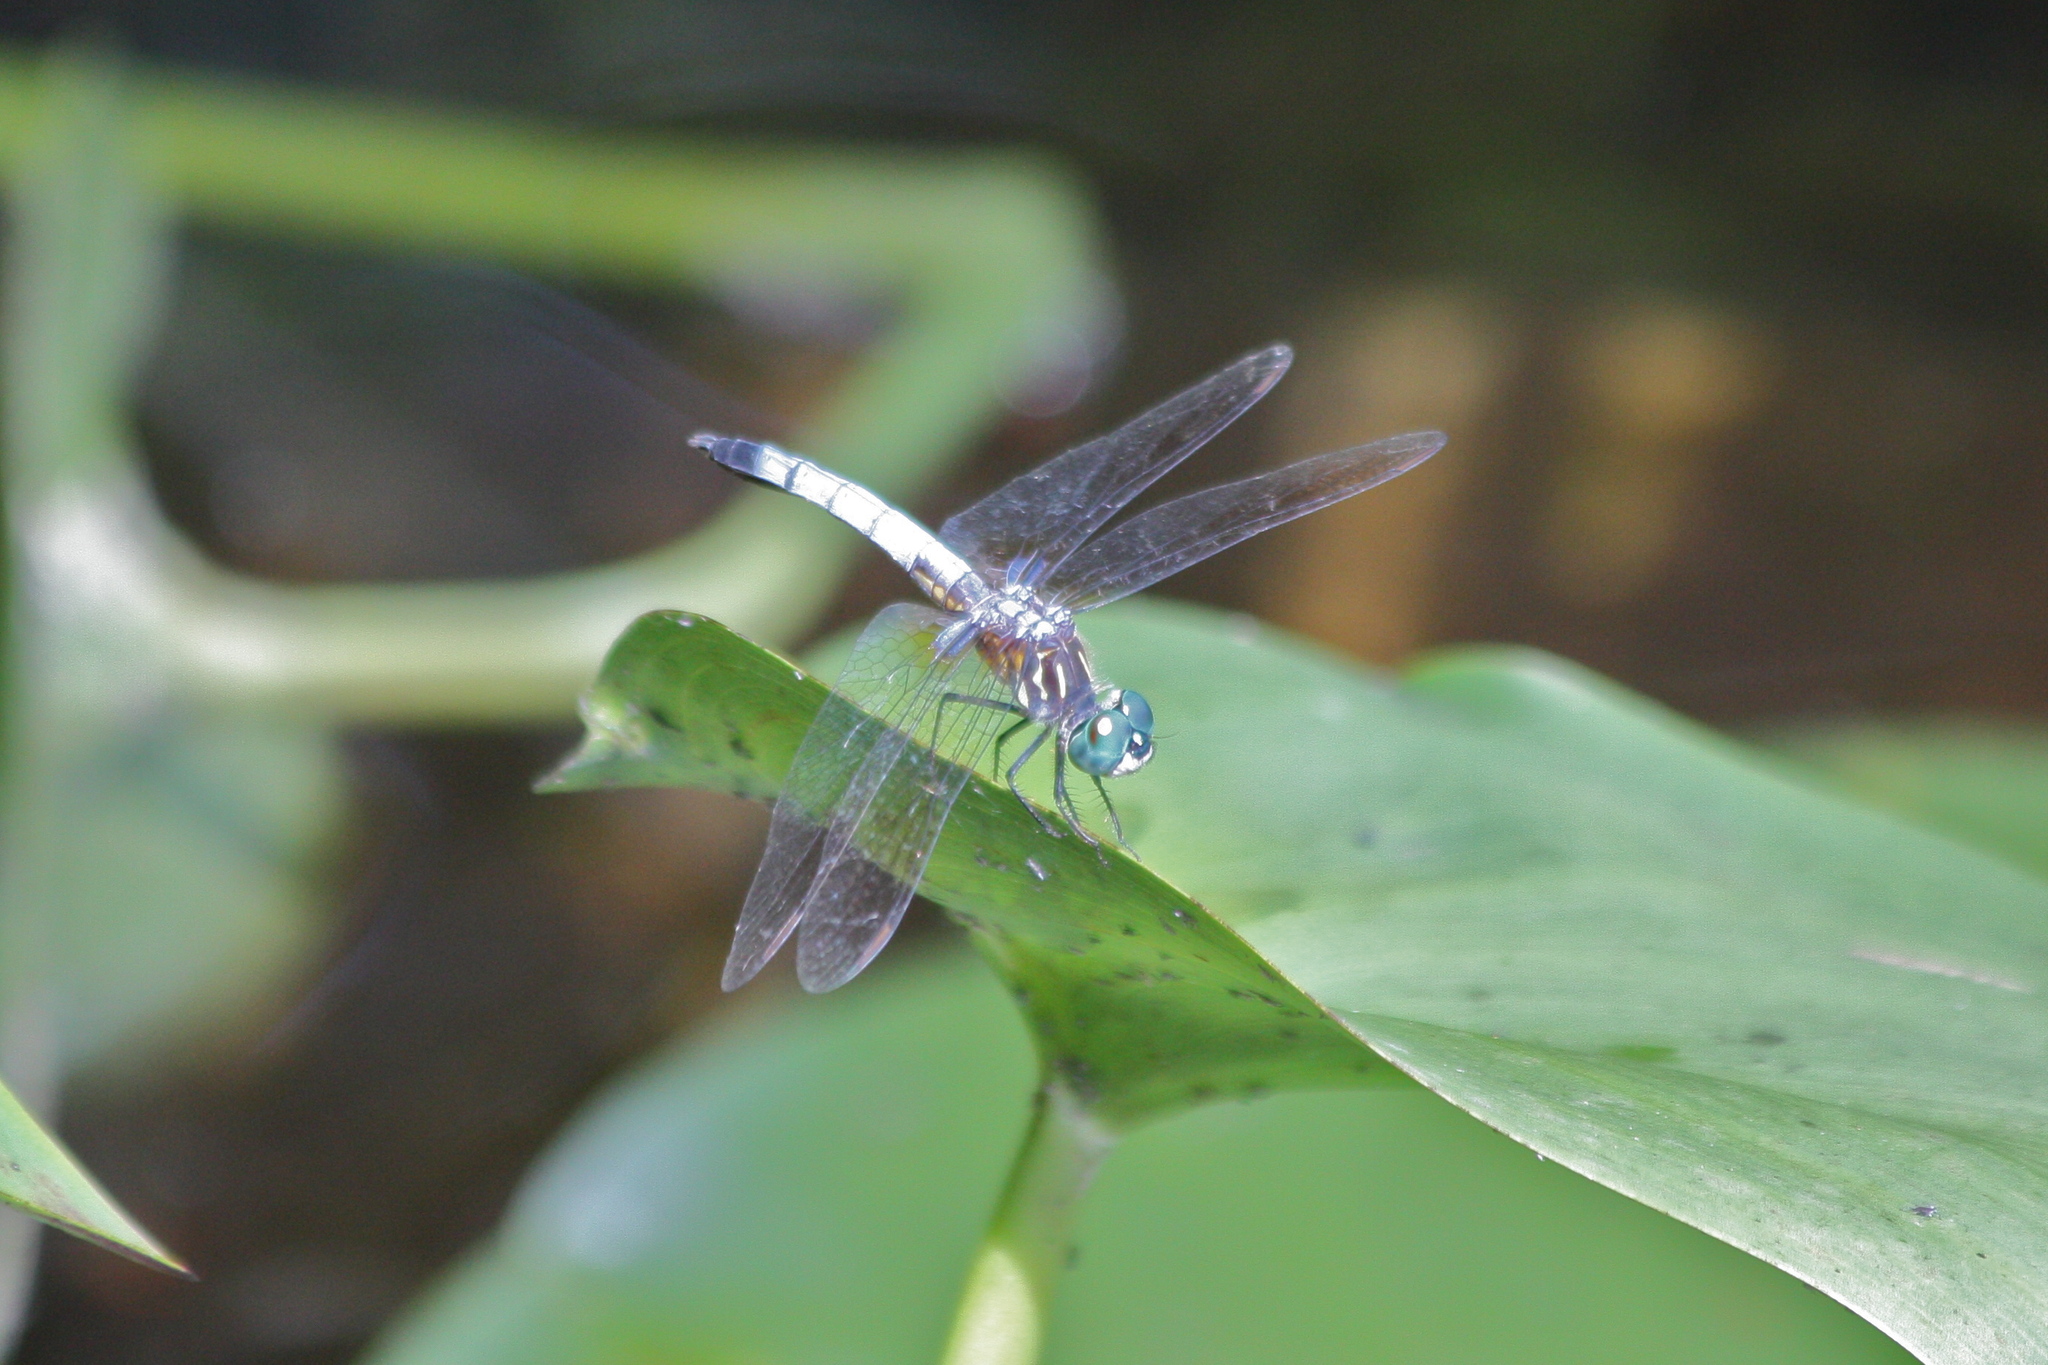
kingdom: Animalia
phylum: Arthropoda
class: Insecta
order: Odonata
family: Libellulidae
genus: Pachydiplax
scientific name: Pachydiplax longipennis
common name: Blue dasher
